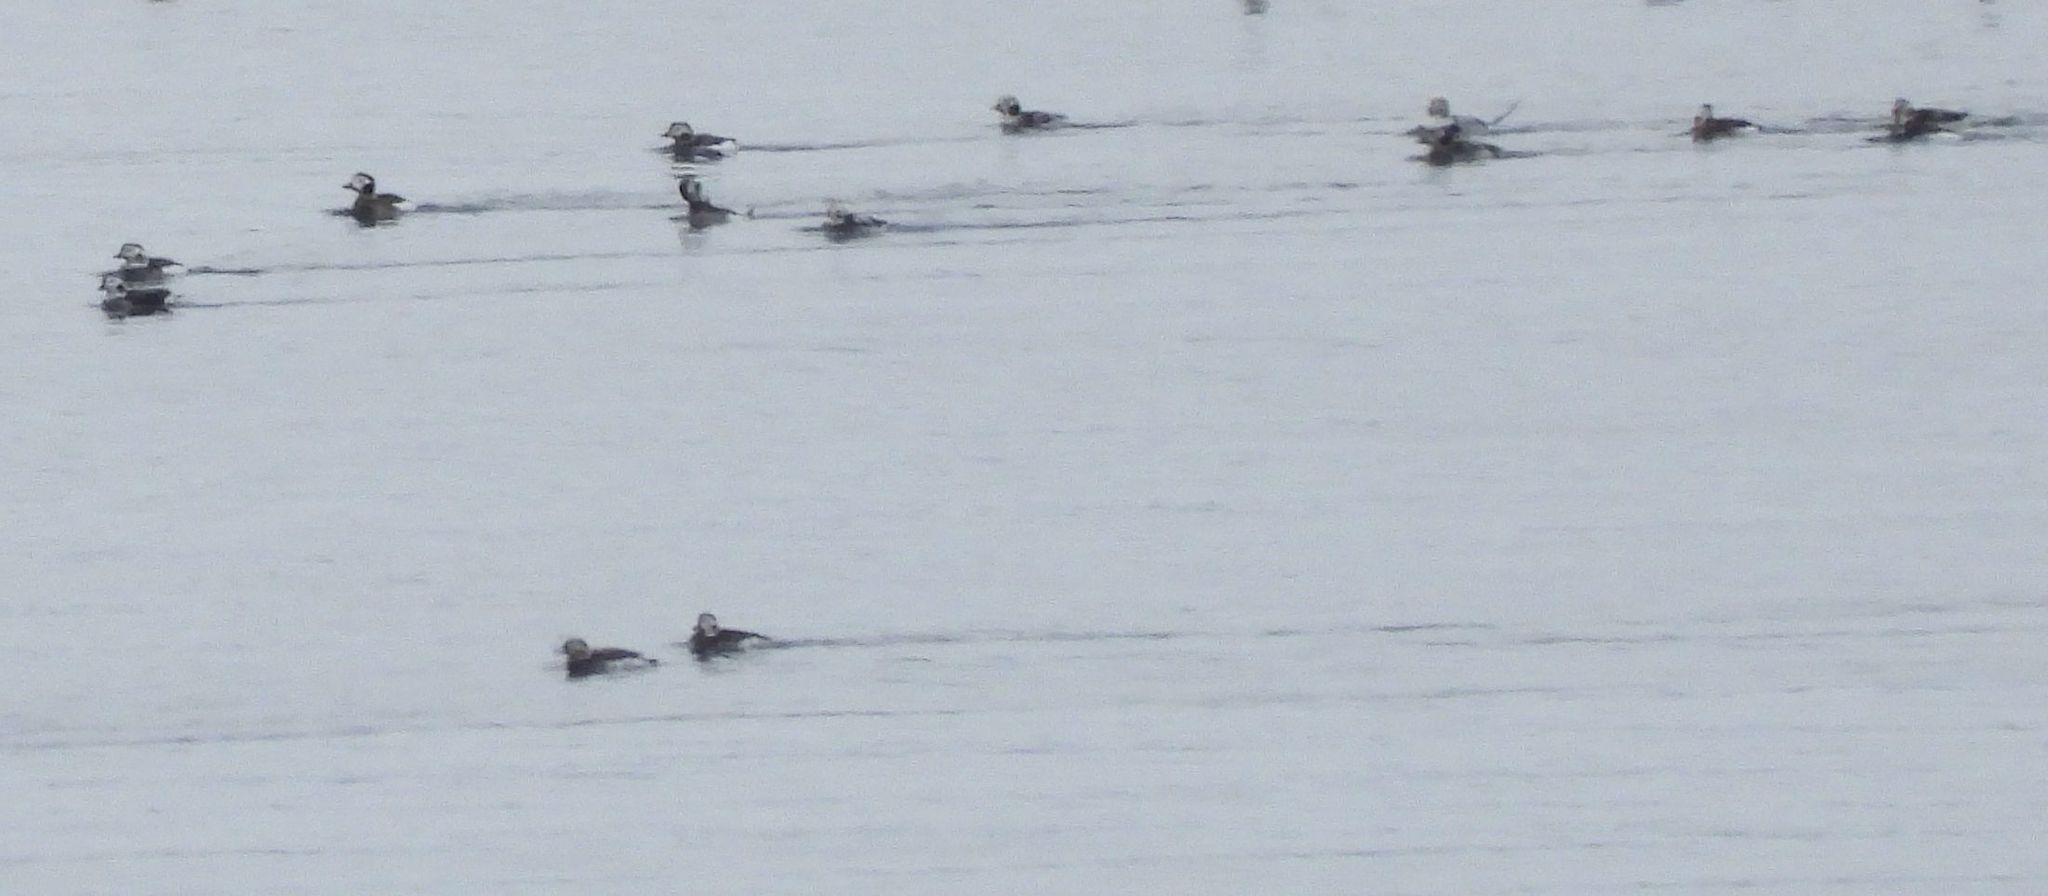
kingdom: Animalia
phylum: Chordata
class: Aves
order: Anseriformes
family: Anatidae
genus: Clangula
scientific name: Clangula hyemalis
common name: Long-tailed duck
